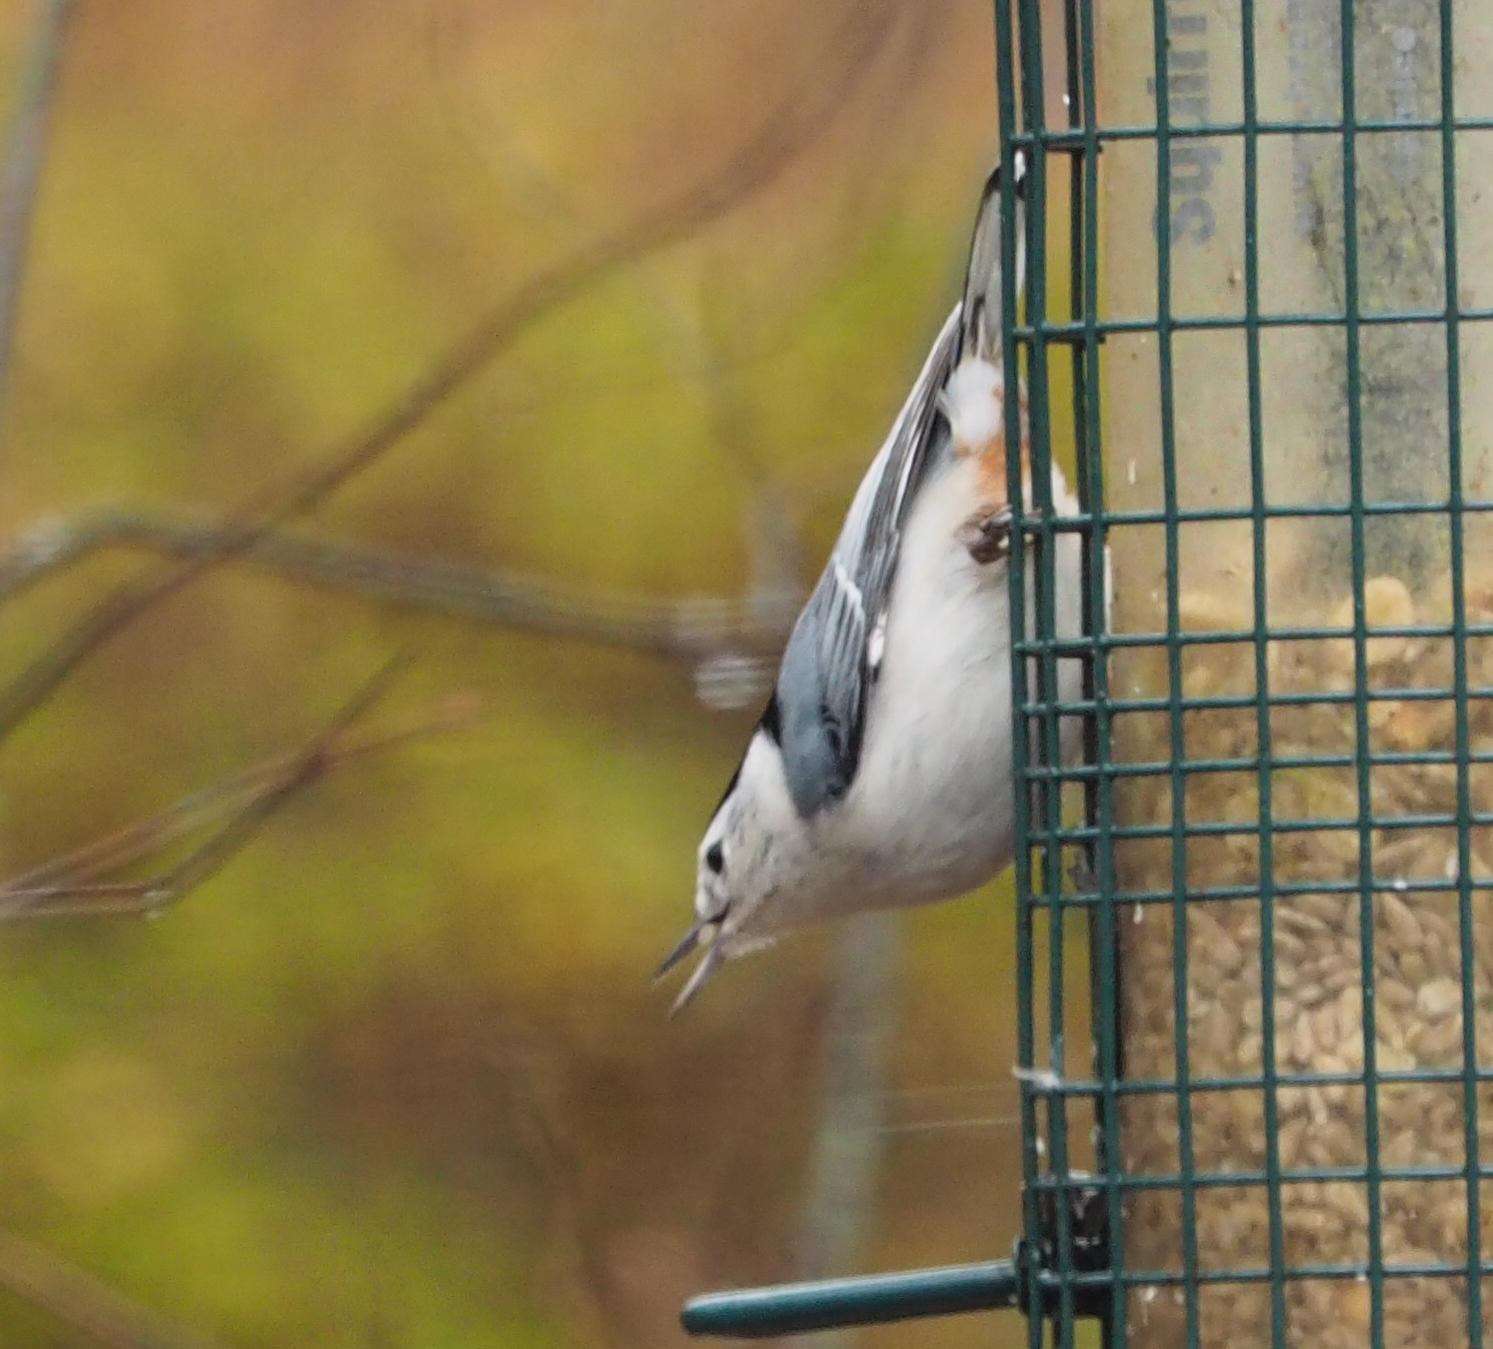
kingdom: Animalia
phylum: Chordata
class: Aves
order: Passeriformes
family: Sittidae
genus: Sitta
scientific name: Sitta carolinensis
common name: White-breasted nuthatch
